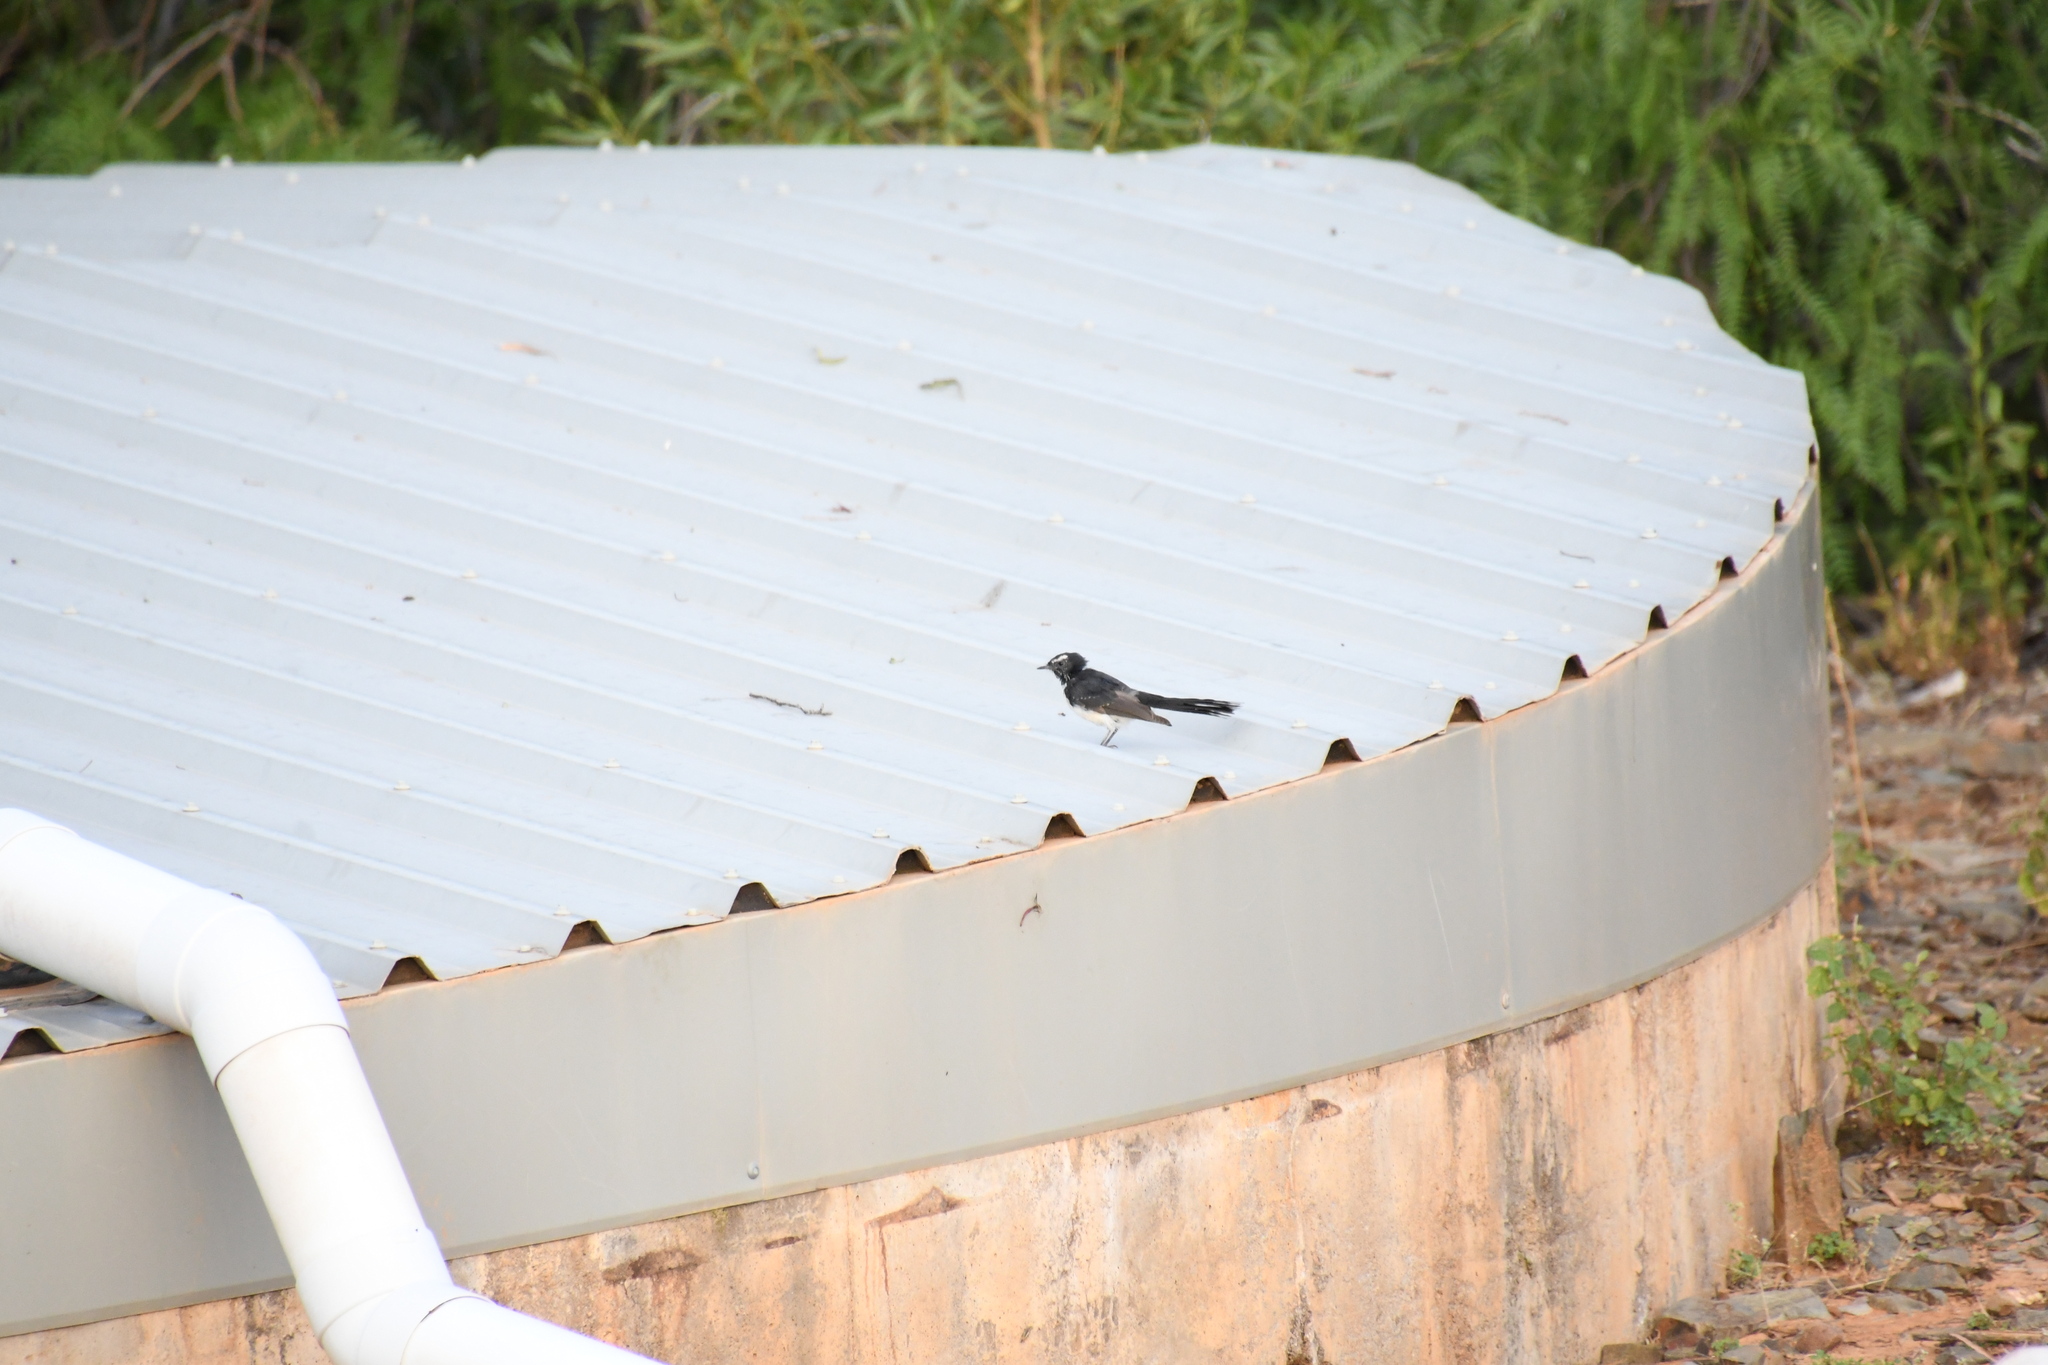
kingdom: Animalia
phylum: Chordata
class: Aves
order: Passeriformes
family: Rhipiduridae
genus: Rhipidura
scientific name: Rhipidura leucophrys
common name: Willie wagtail
